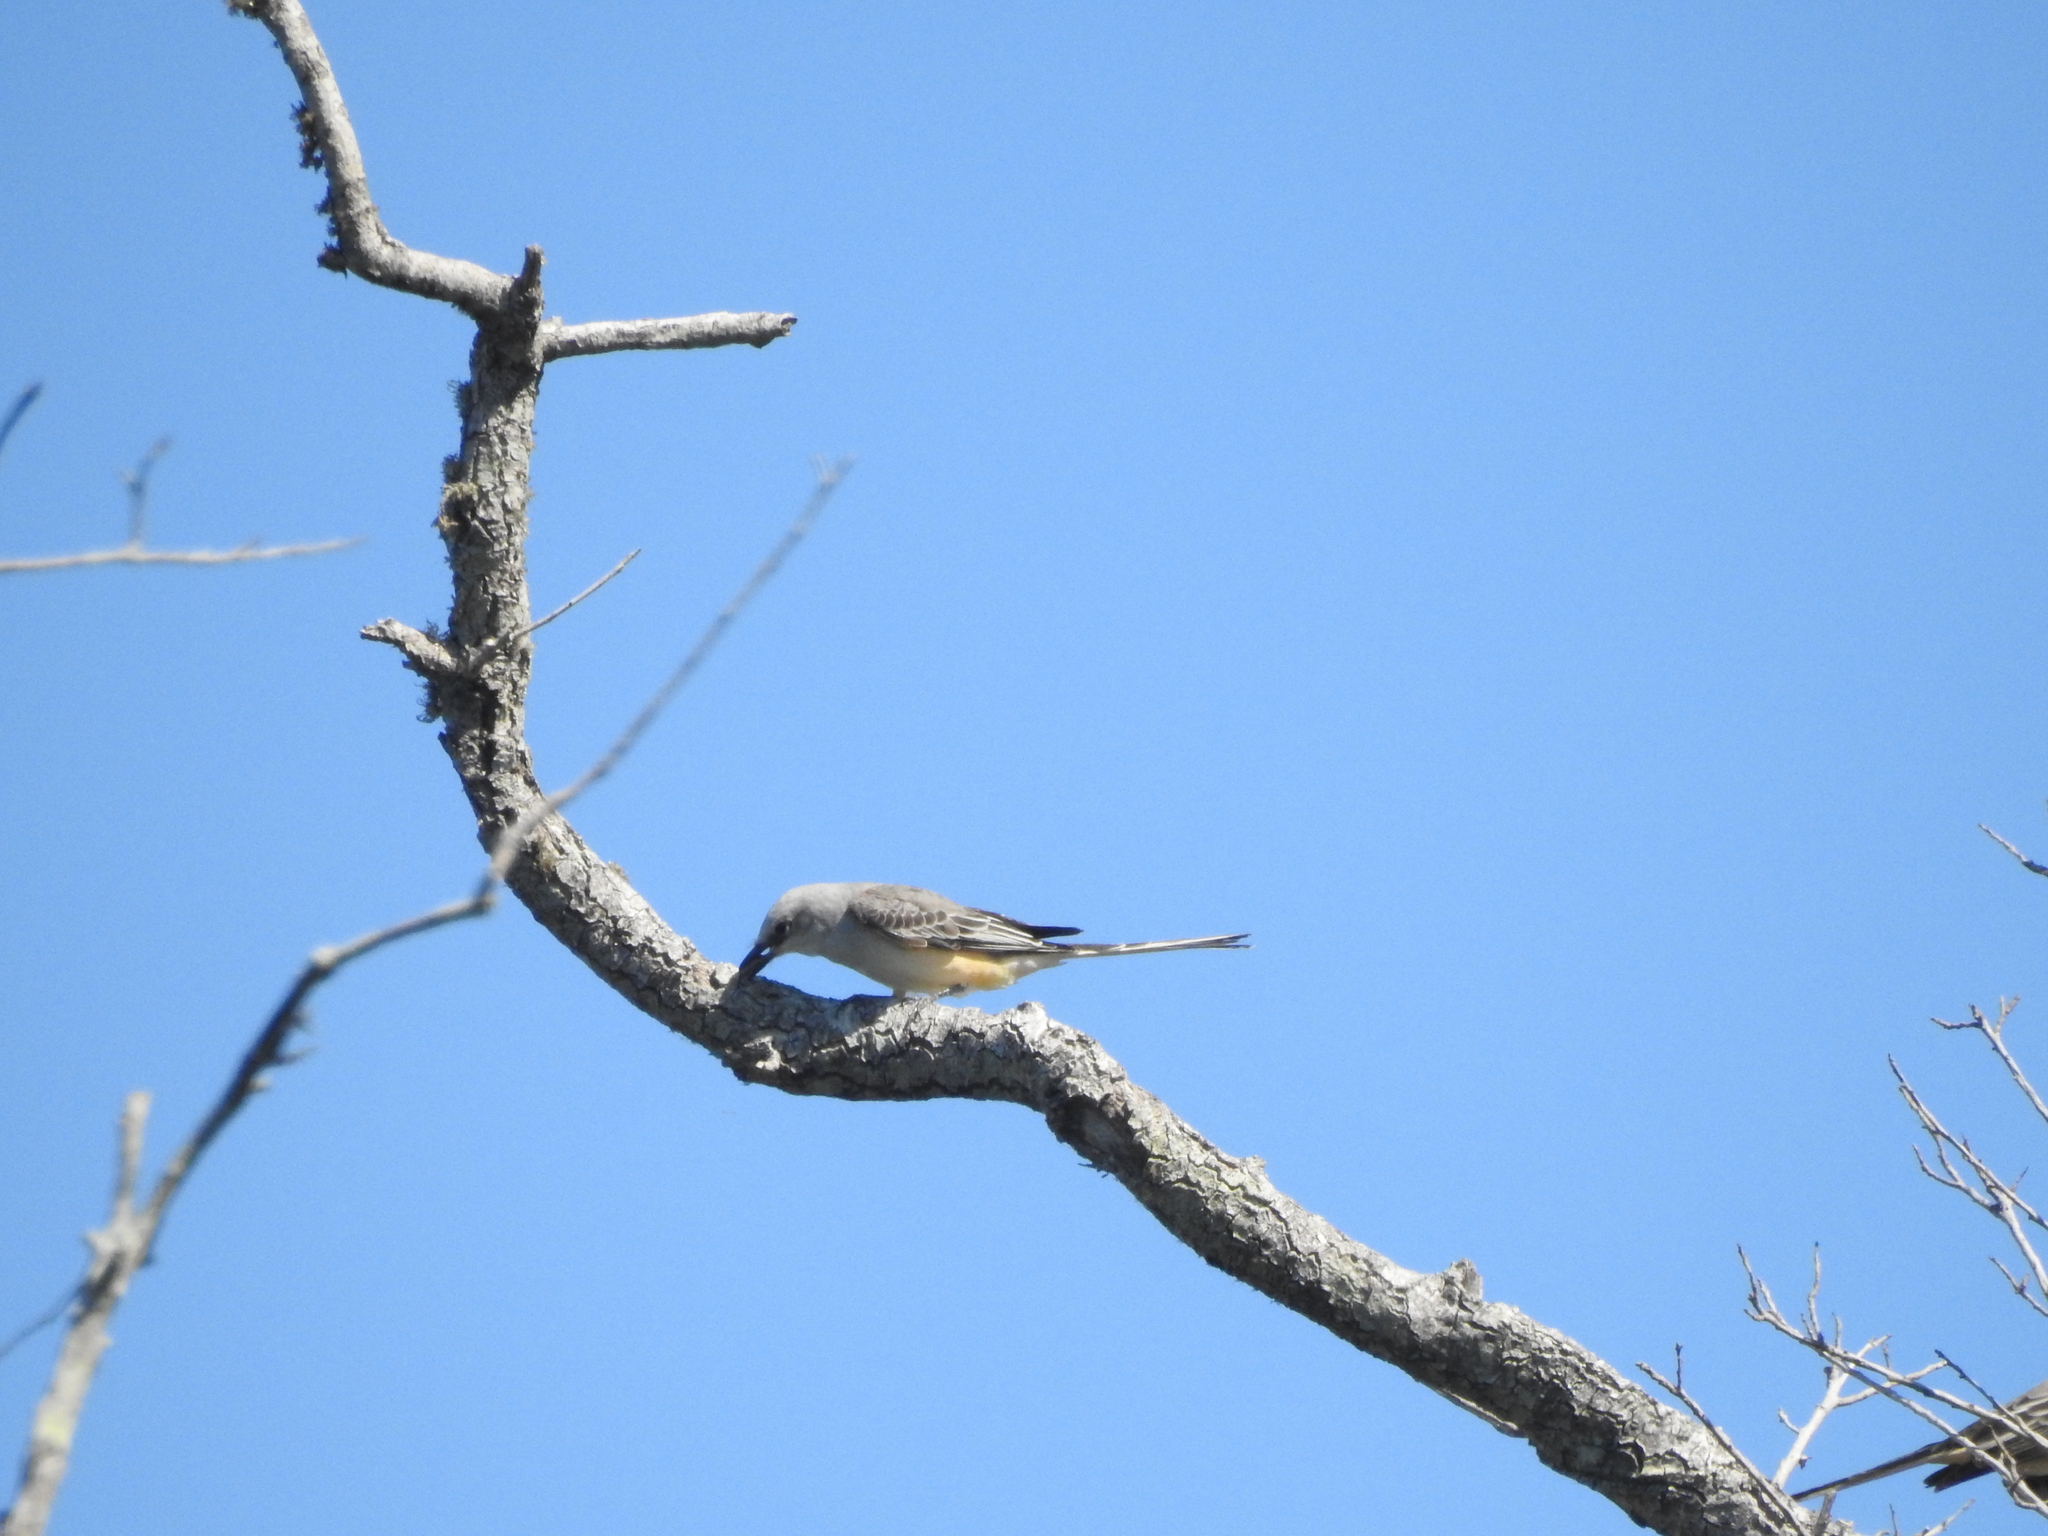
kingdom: Animalia
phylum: Chordata
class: Aves
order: Passeriformes
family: Tyrannidae
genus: Tyrannus
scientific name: Tyrannus forficatus
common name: Scissor-tailed flycatcher
